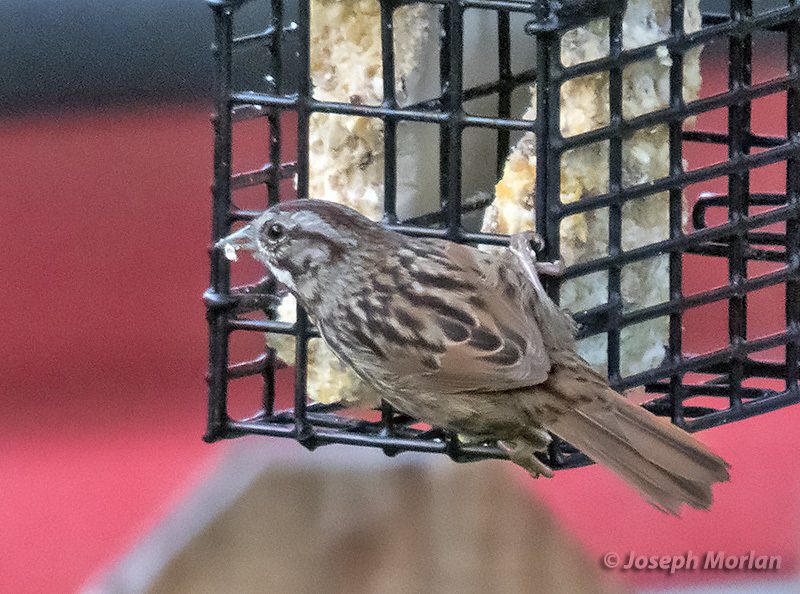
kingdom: Animalia
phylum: Chordata
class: Aves
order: Passeriformes
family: Passerellidae
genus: Melospiza
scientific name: Melospiza melodia
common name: Song sparrow
